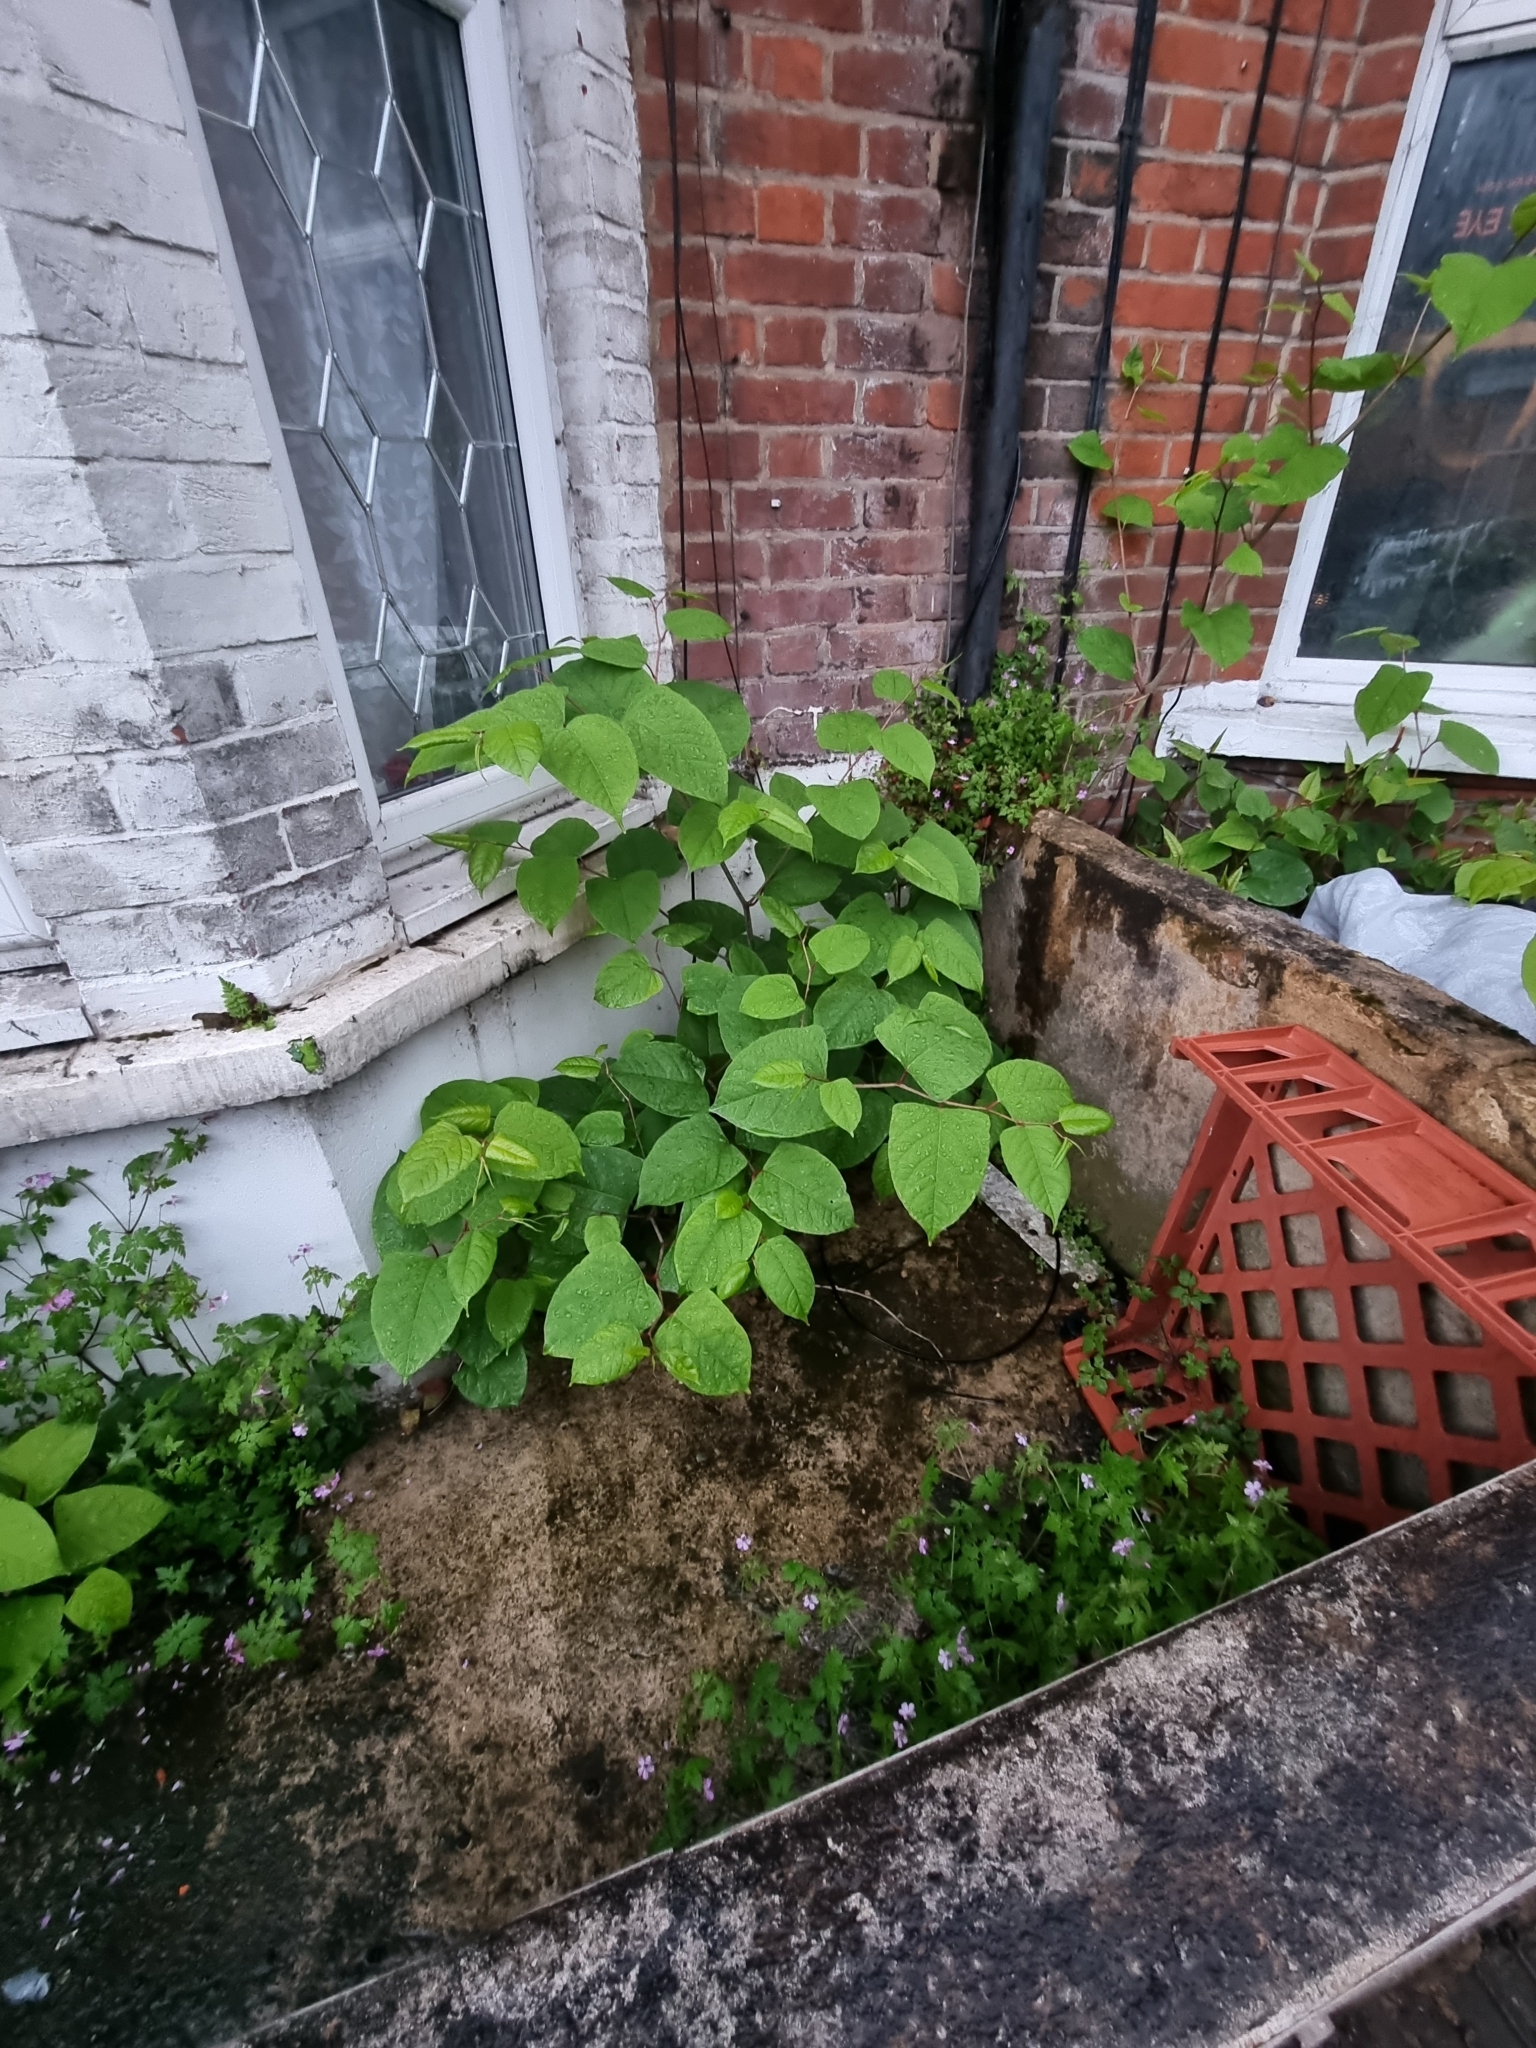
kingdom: Plantae
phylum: Tracheophyta
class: Magnoliopsida
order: Caryophyllales
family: Polygonaceae
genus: Reynoutria
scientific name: Reynoutria japonica
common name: Japanese knotweed
